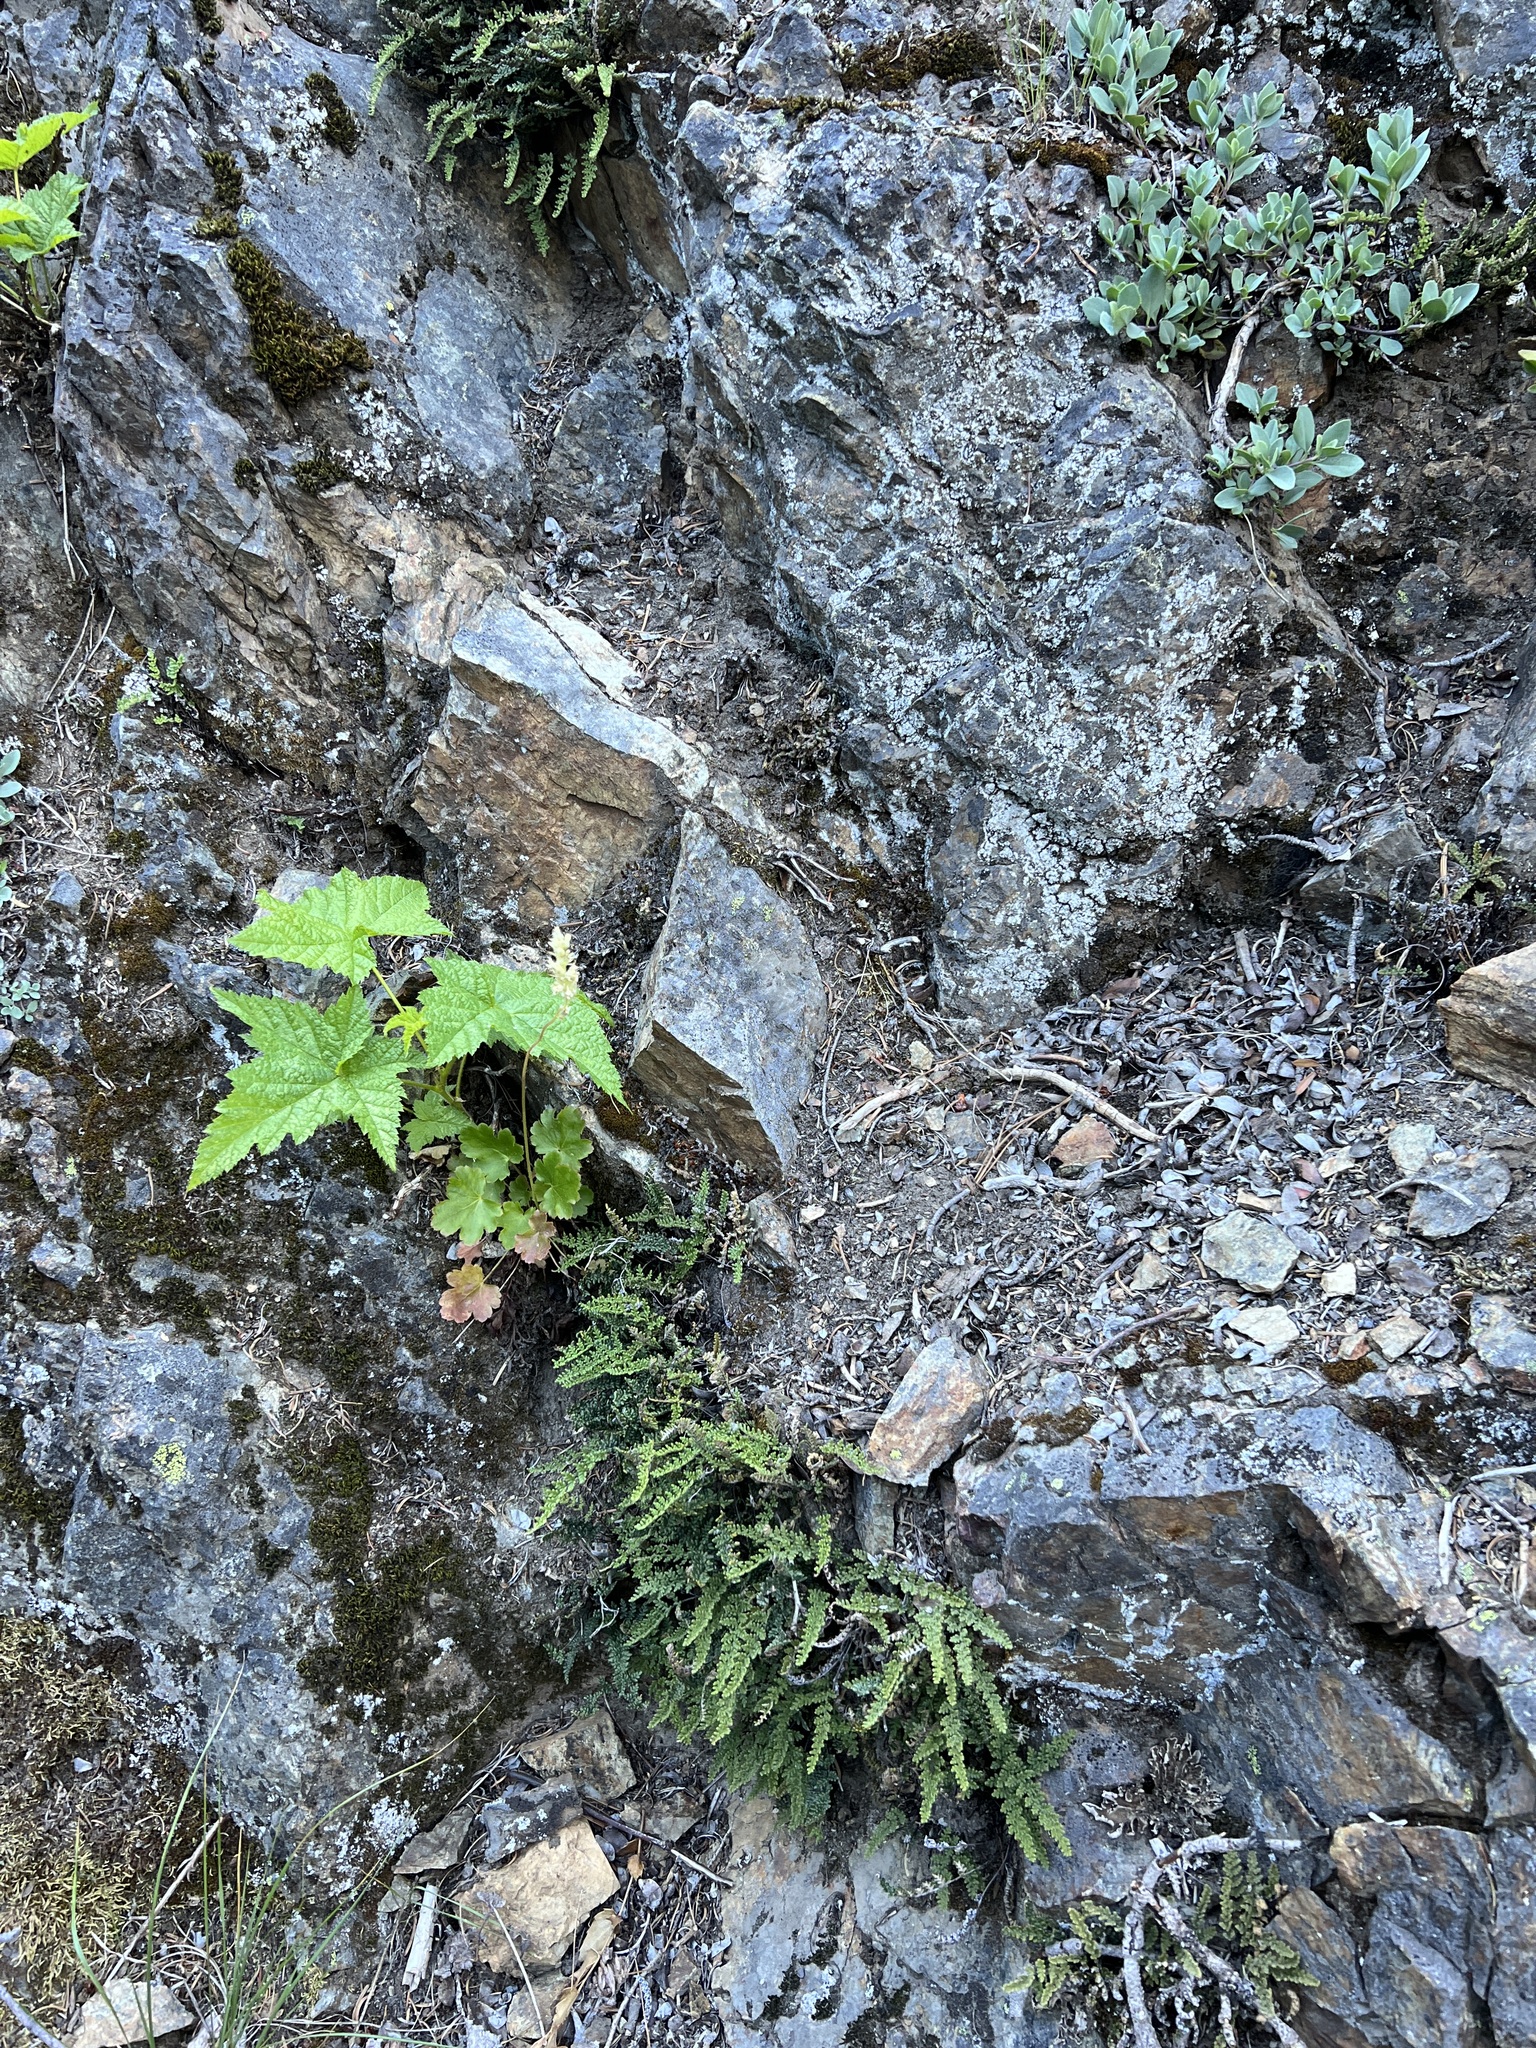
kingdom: Plantae
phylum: Tracheophyta
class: Polypodiopsida
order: Polypodiales
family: Pteridaceae
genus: Myriopteris
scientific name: Myriopteris gracillima
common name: Lace fern
